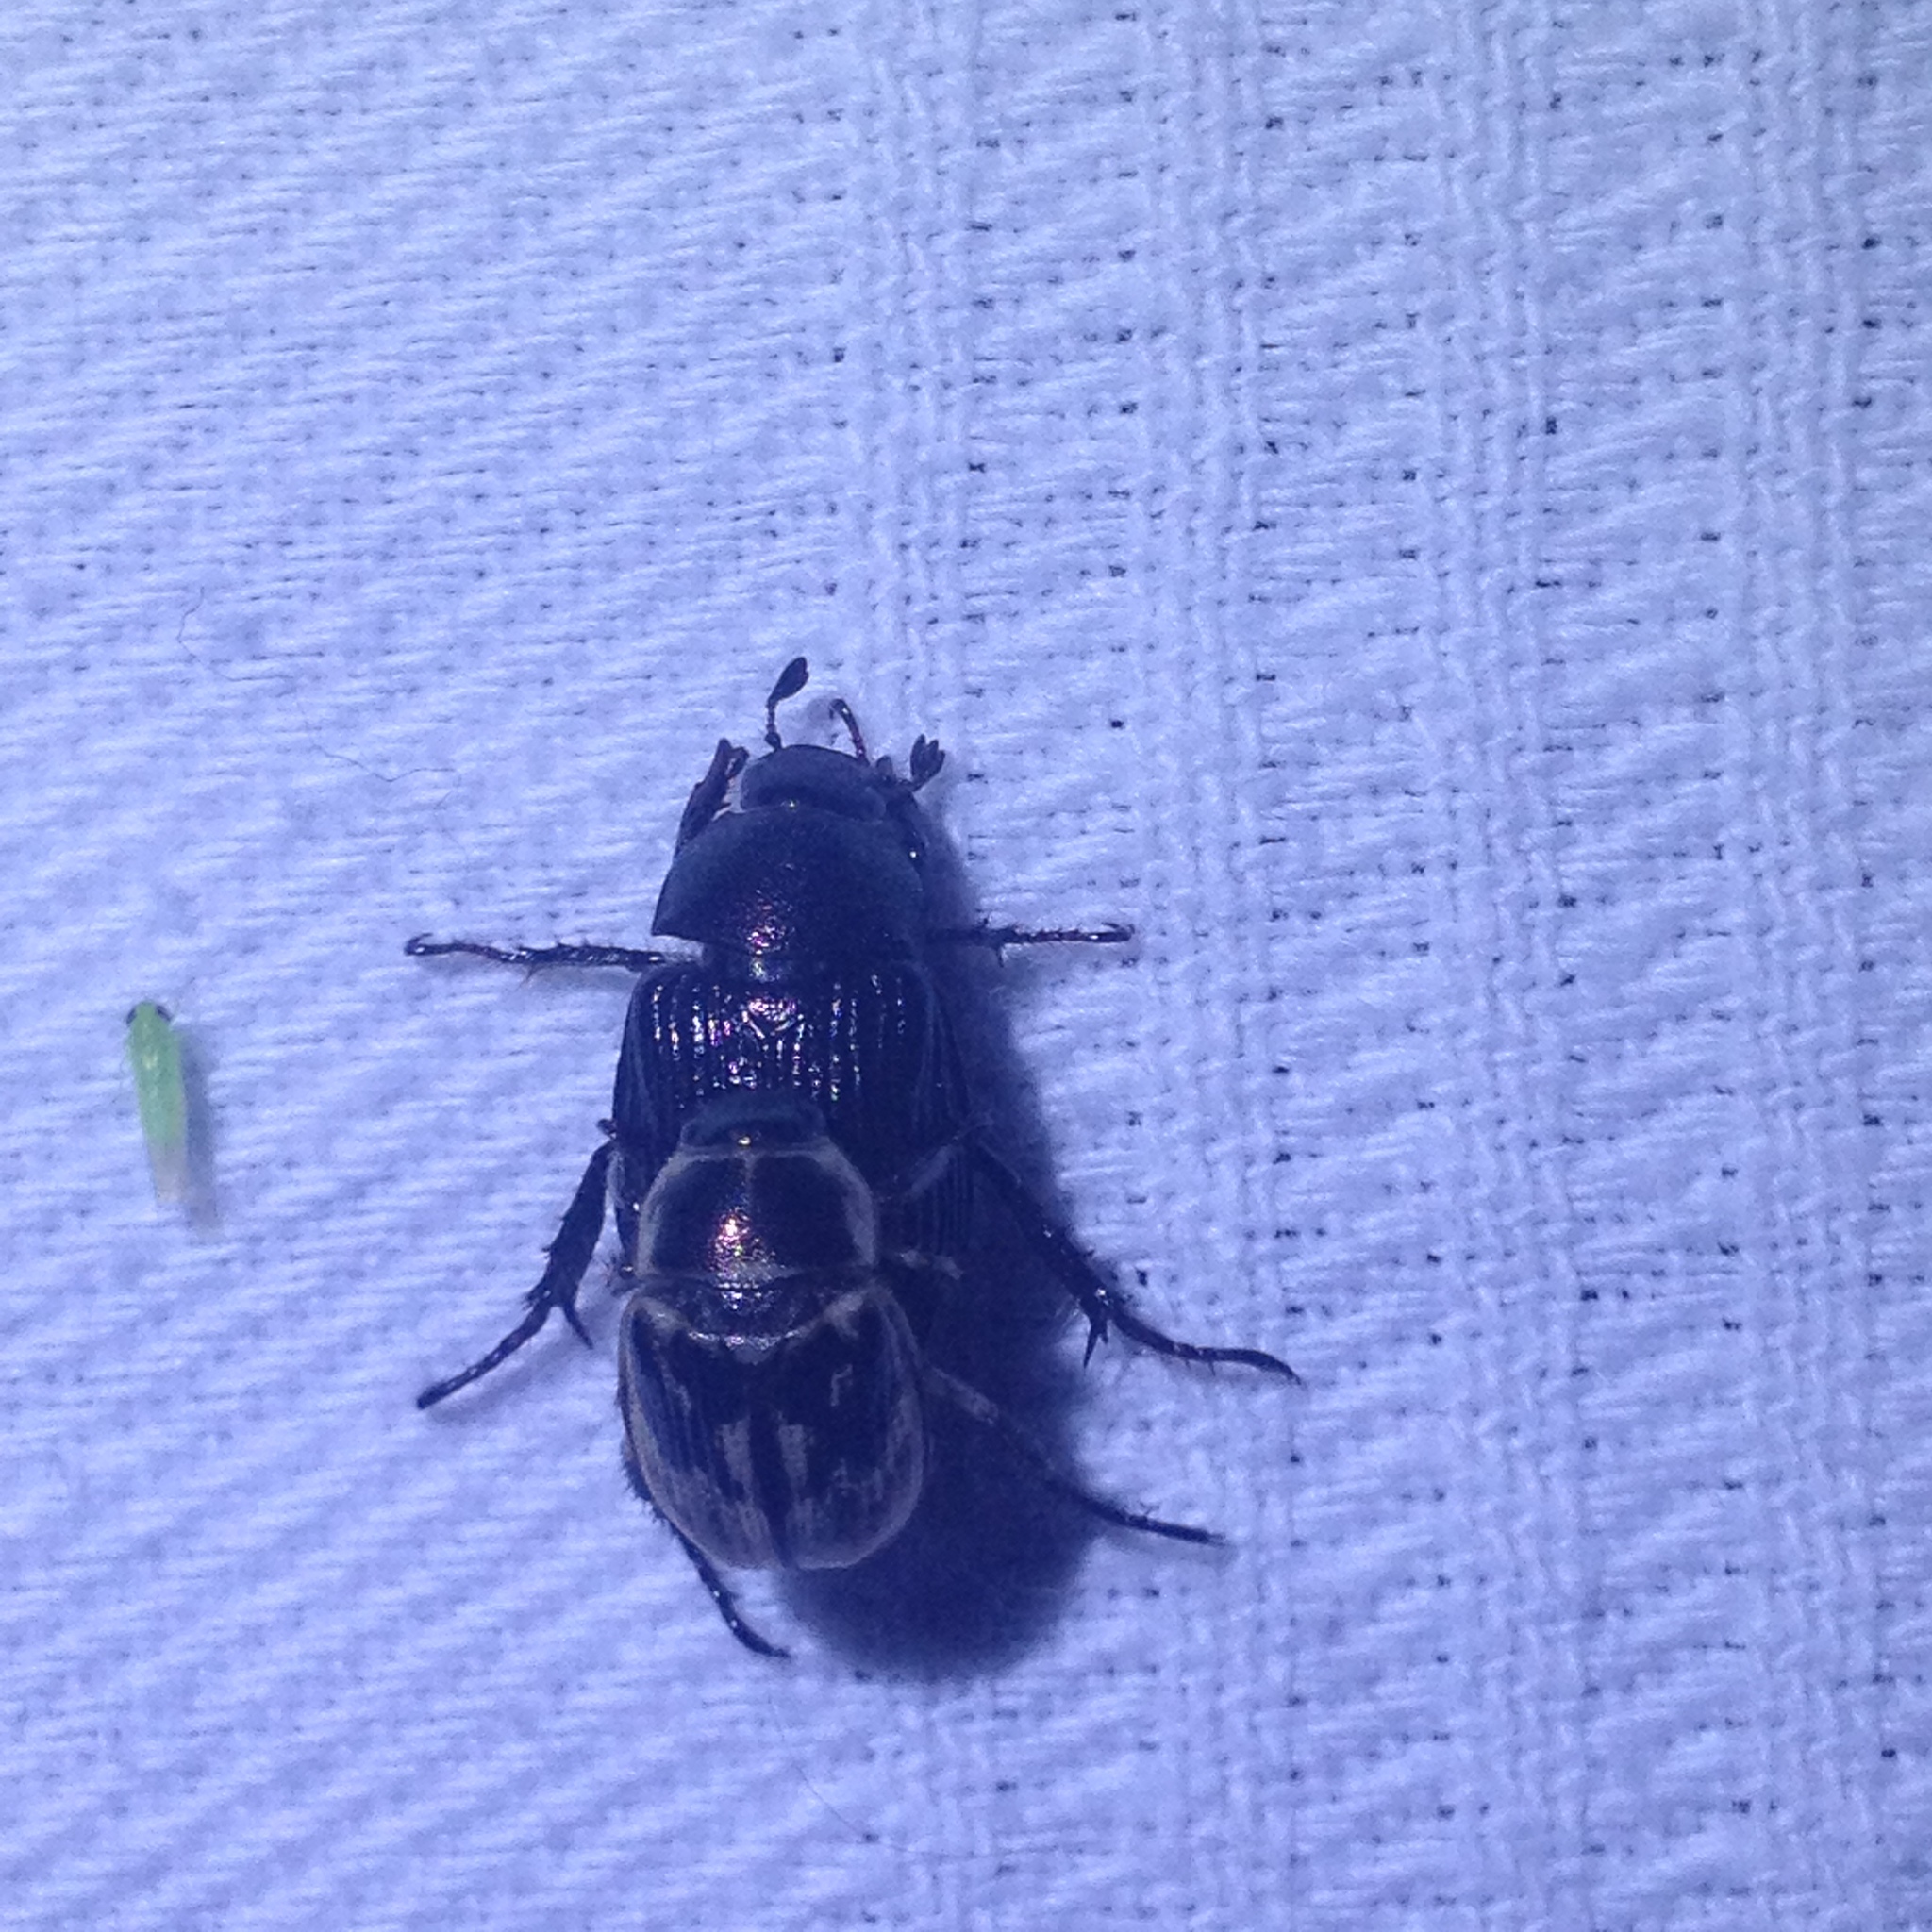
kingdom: Animalia
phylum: Arthropoda
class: Insecta
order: Coleoptera
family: Scarabaeidae
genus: Exomala
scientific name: Exomala orientalis
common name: Oriental beetle
